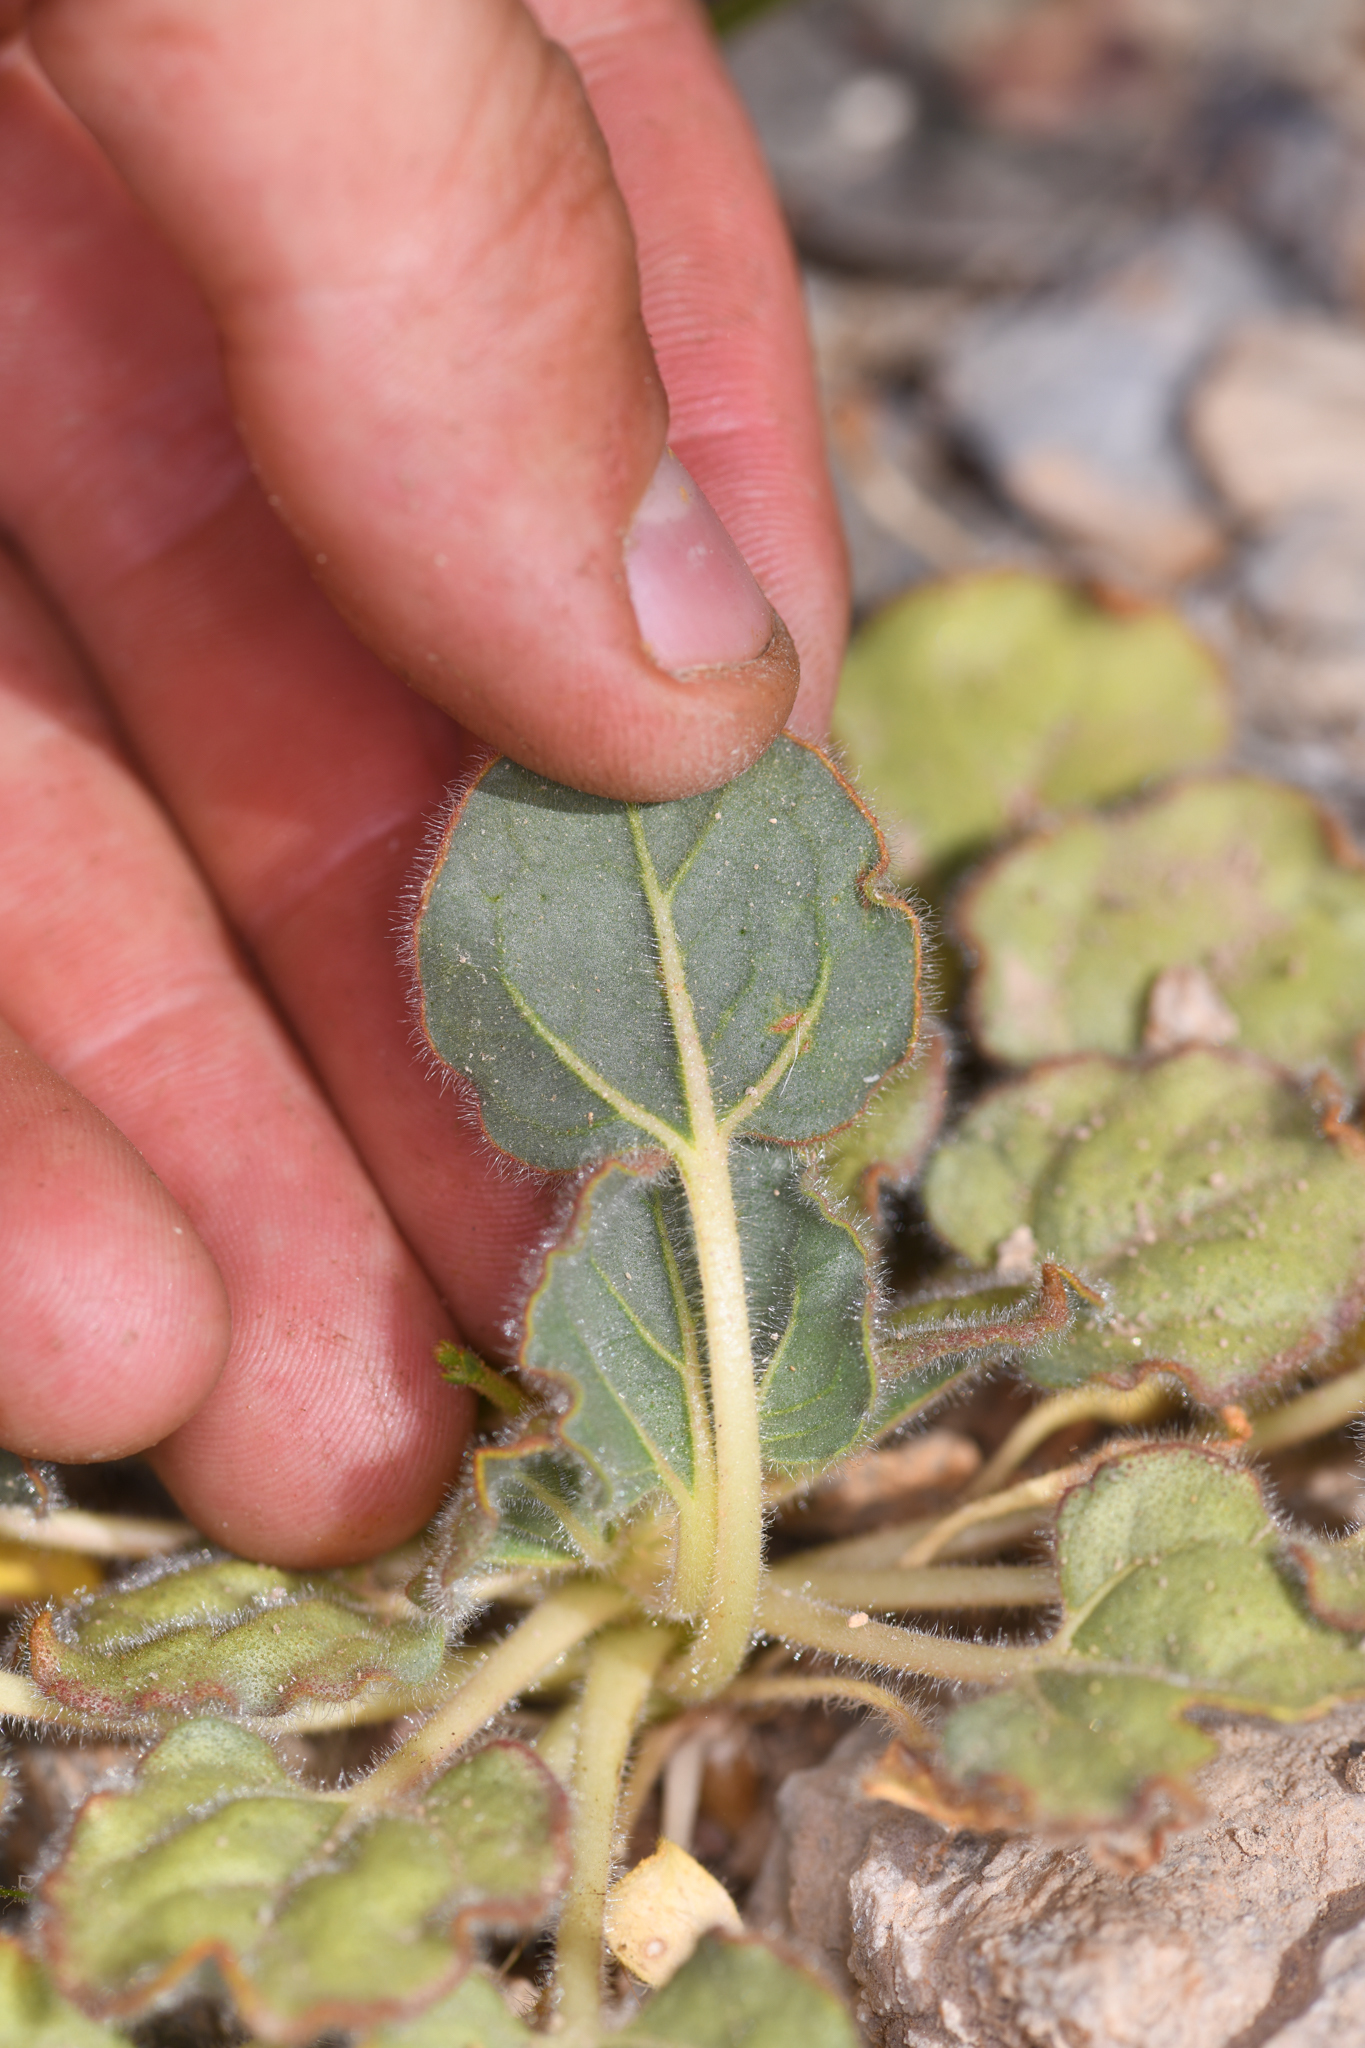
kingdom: Plantae
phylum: Tracheophyta
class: Magnoliopsida
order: Caryophyllales
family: Polygonaceae
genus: Eriogonum
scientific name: Eriogonum glandulosum
